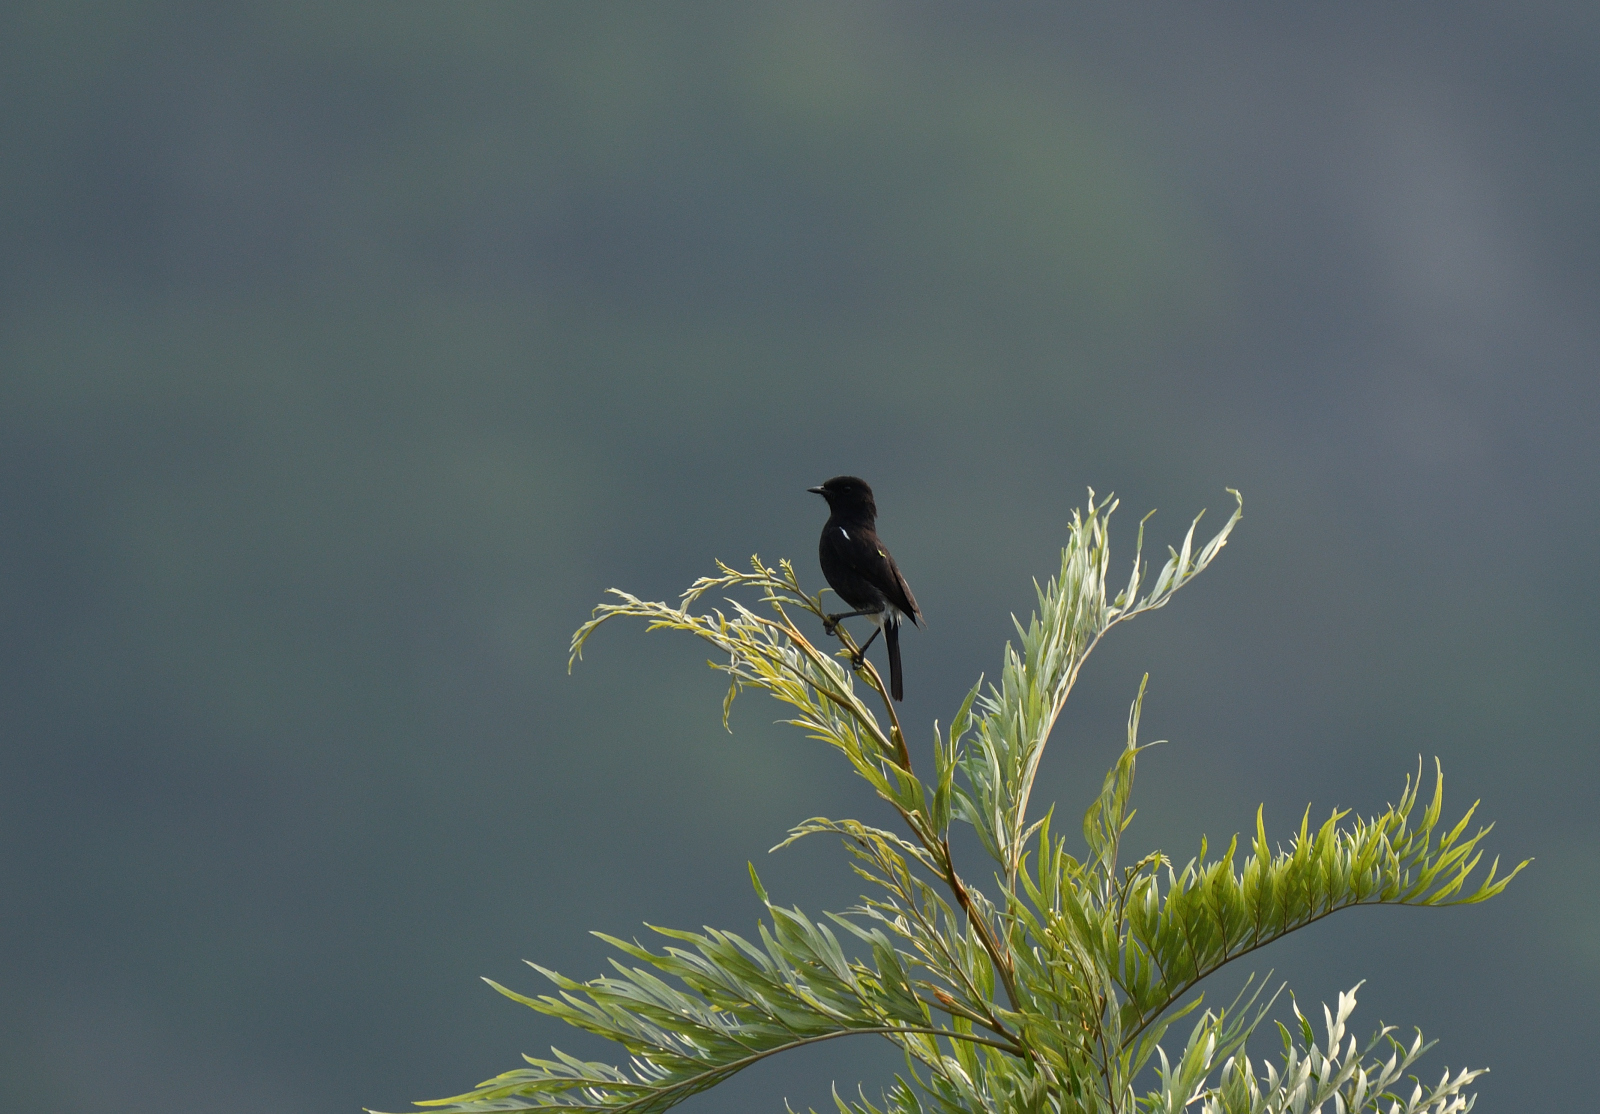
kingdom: Animalia
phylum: Chordata
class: Aves
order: Passeriformes
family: Muscicapidae
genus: Saxicola
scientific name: Saxicola caprata
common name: Pied bush chat
